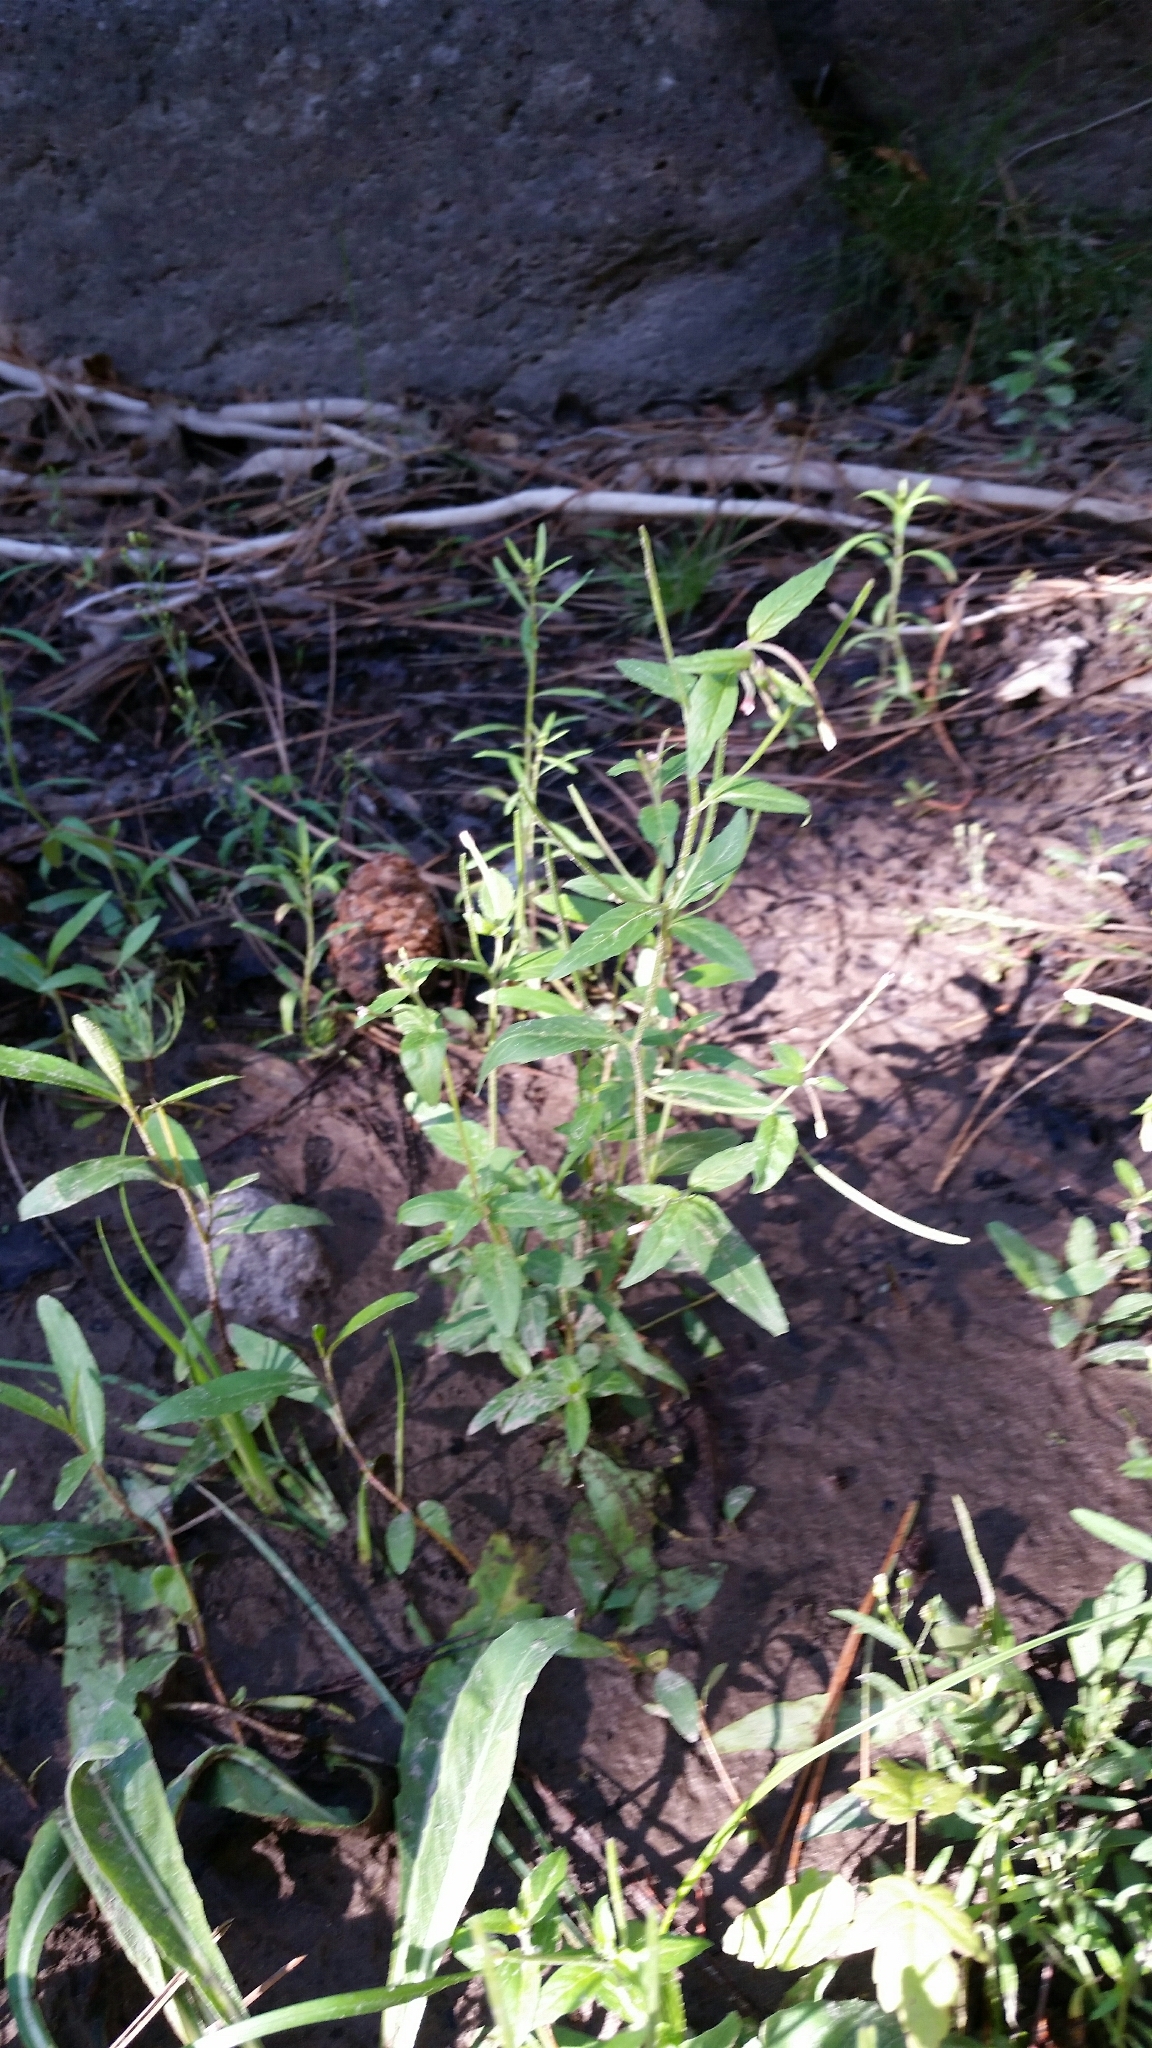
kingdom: Plantae
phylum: Tracheophyta
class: Magnoliopsida
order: Myrtales
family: Onagraceae
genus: Epilobium
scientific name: Epilobium ciliatum
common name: American willowherb
